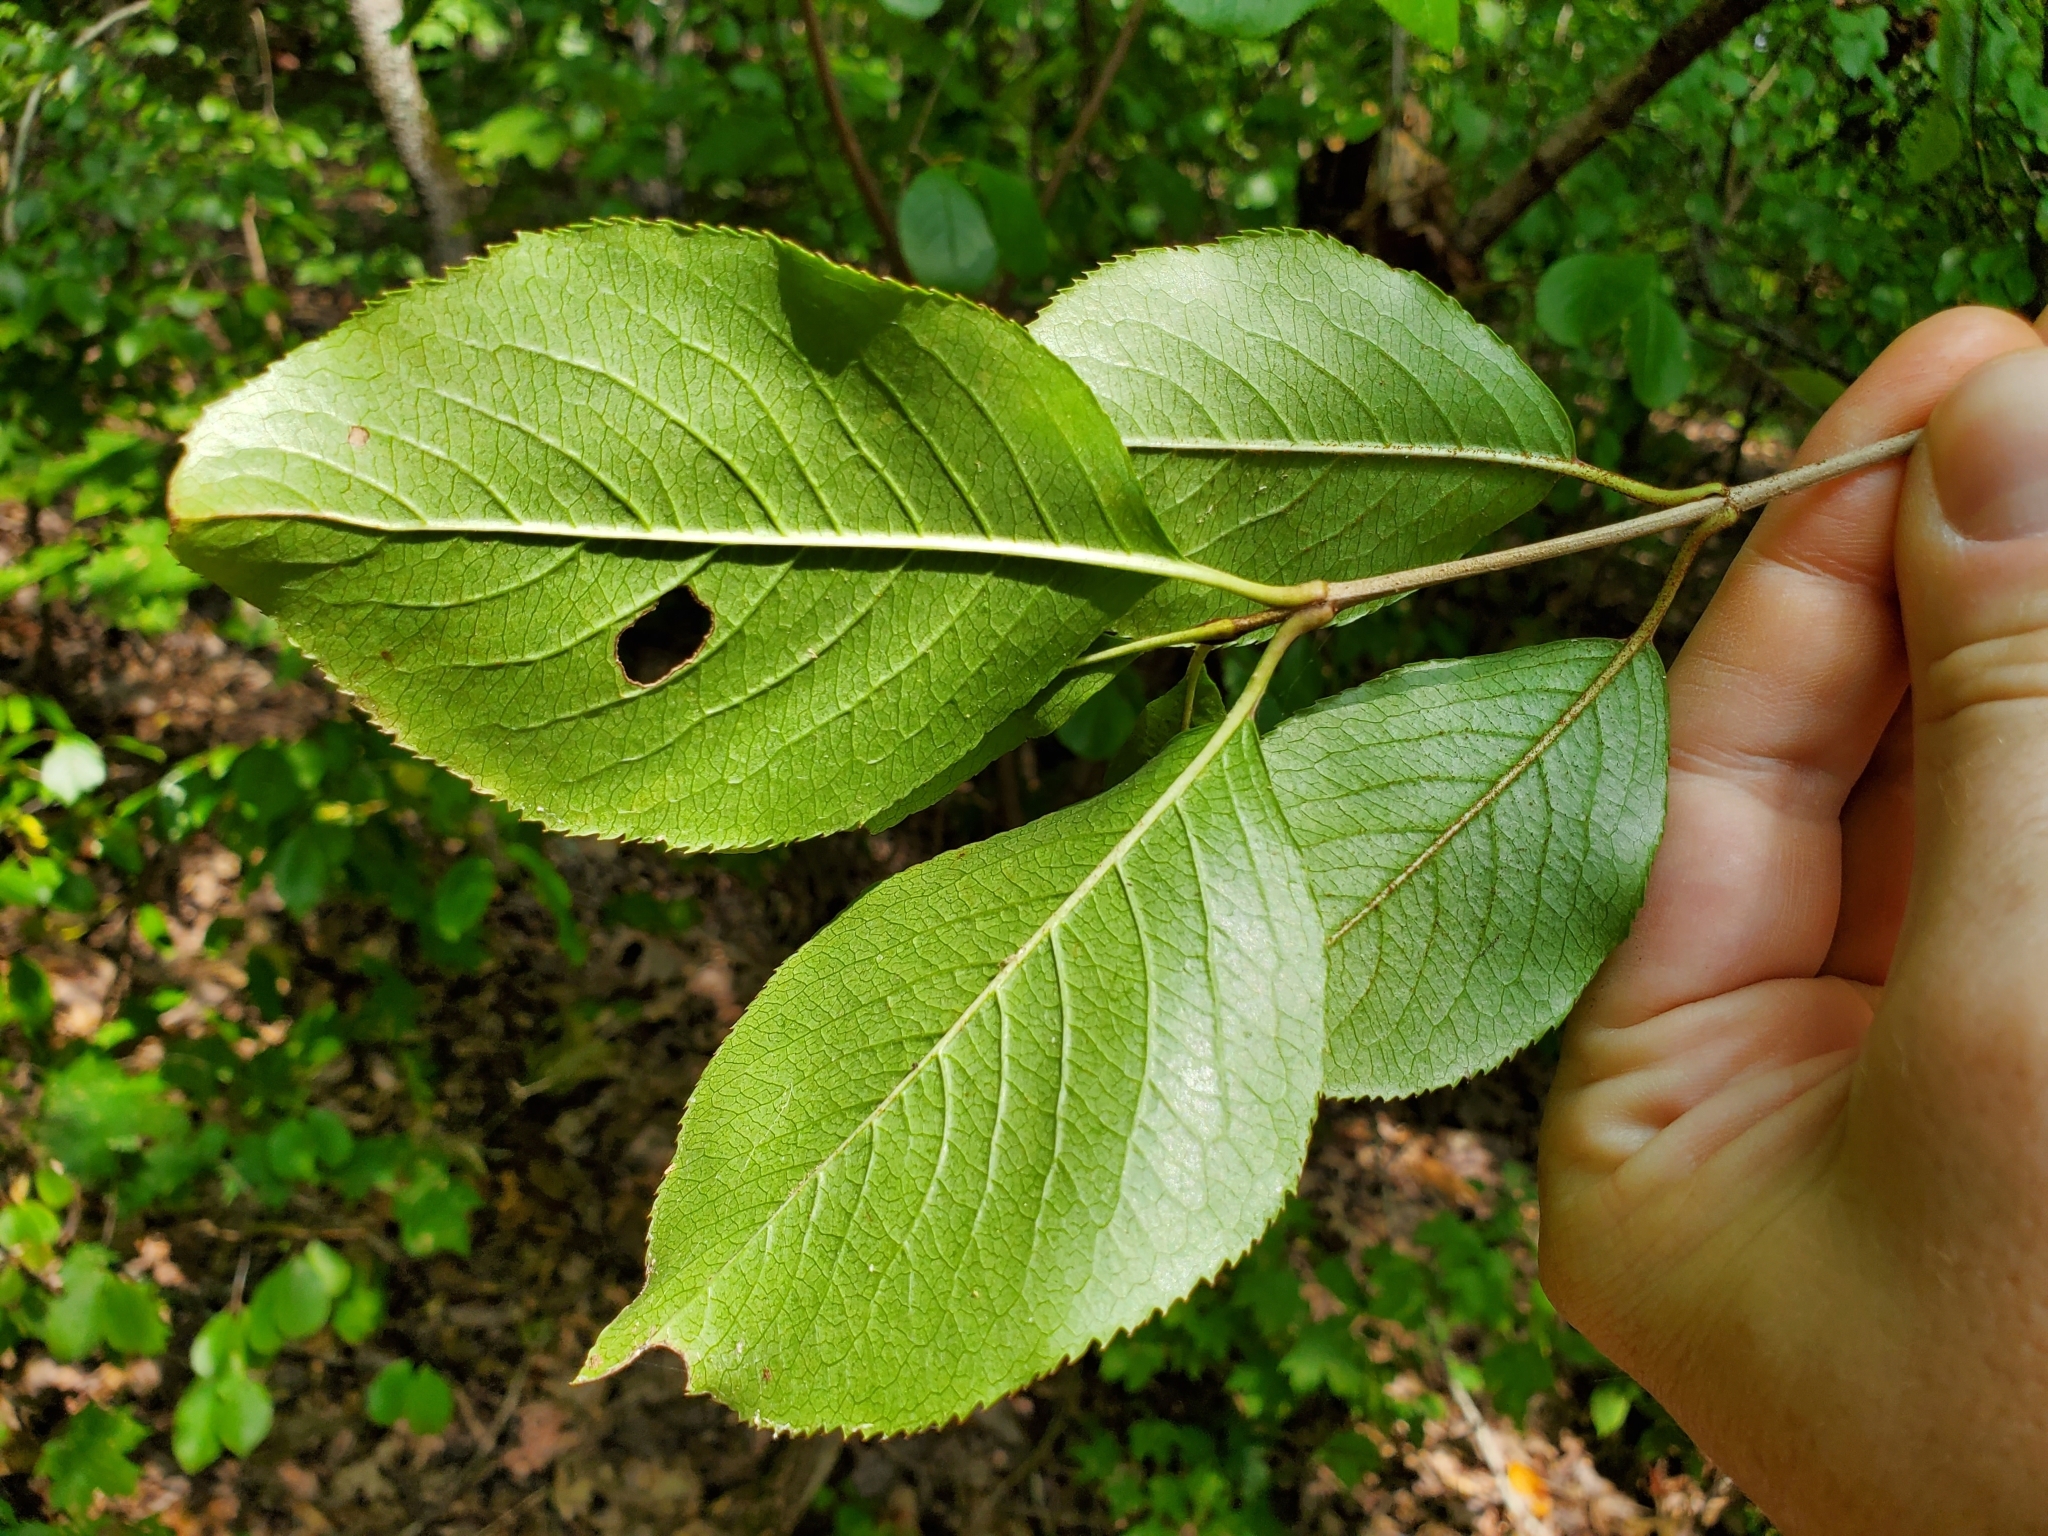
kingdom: Plantae
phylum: Tracheophyta
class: Magnoliopsida
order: Dipsacales
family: Viburnaceae
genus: Viburnum
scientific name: Viburnum rufidulum
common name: Blue haw
